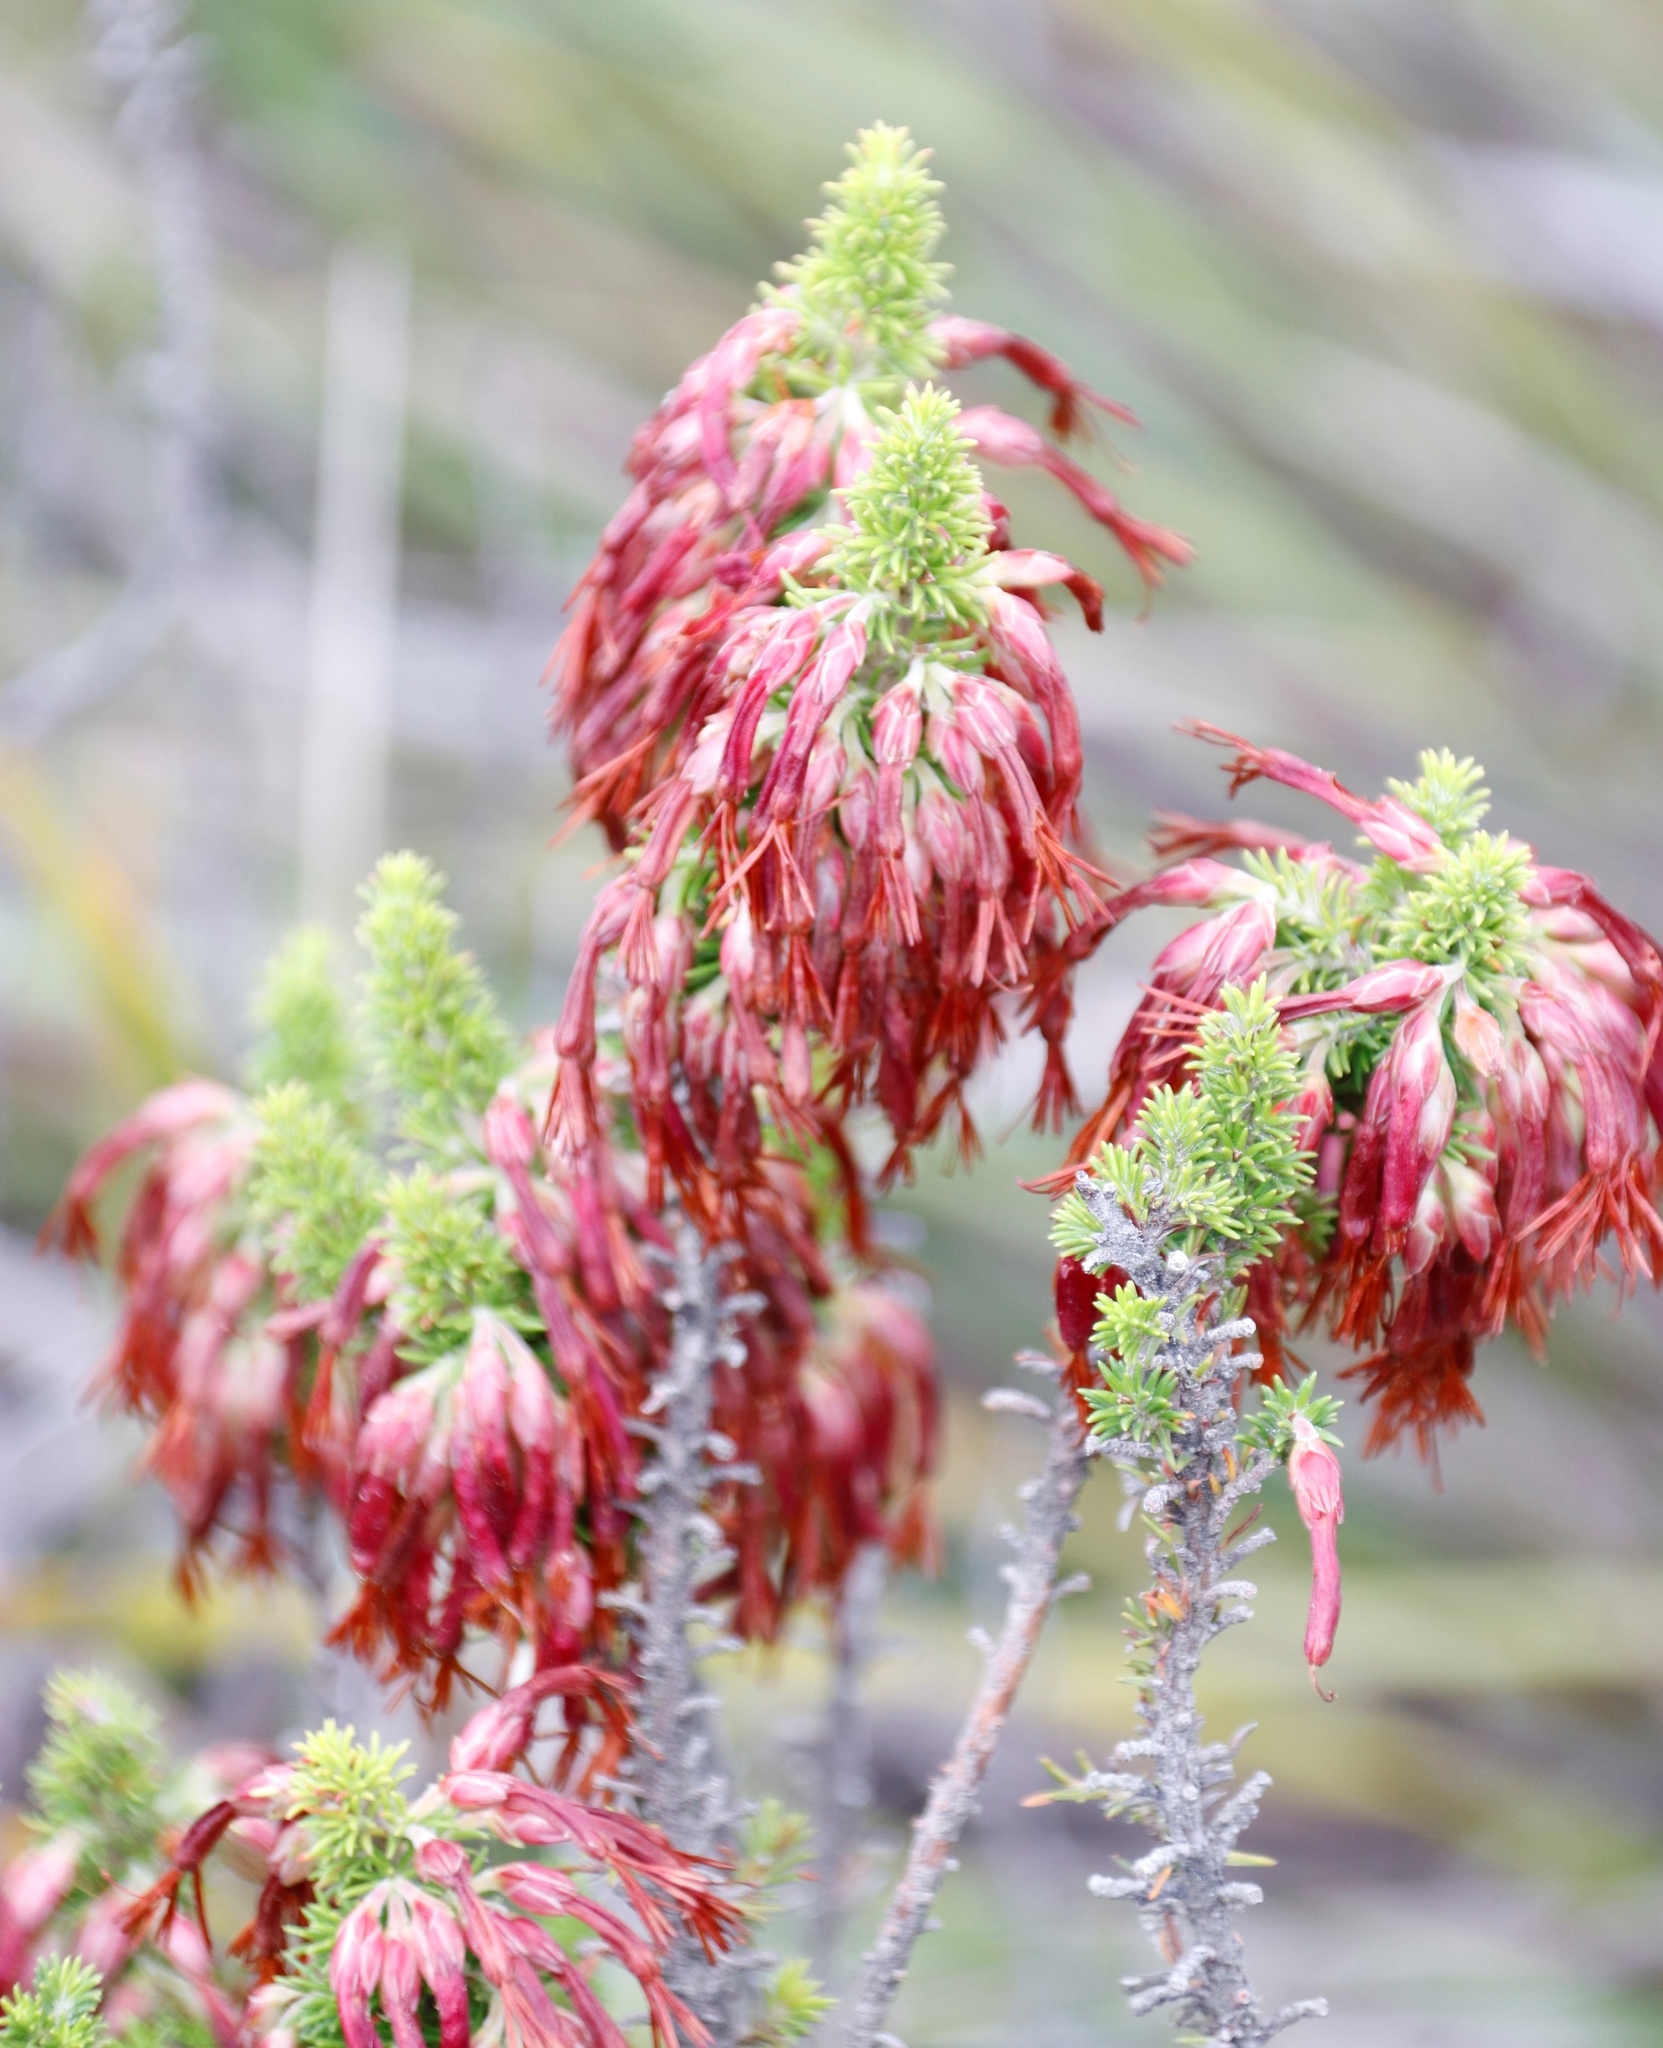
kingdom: Plantae
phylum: Tracheophyta
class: Magnoliopsida
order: Ericales
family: Ericaceae
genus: Erica
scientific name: Erica coccinea
